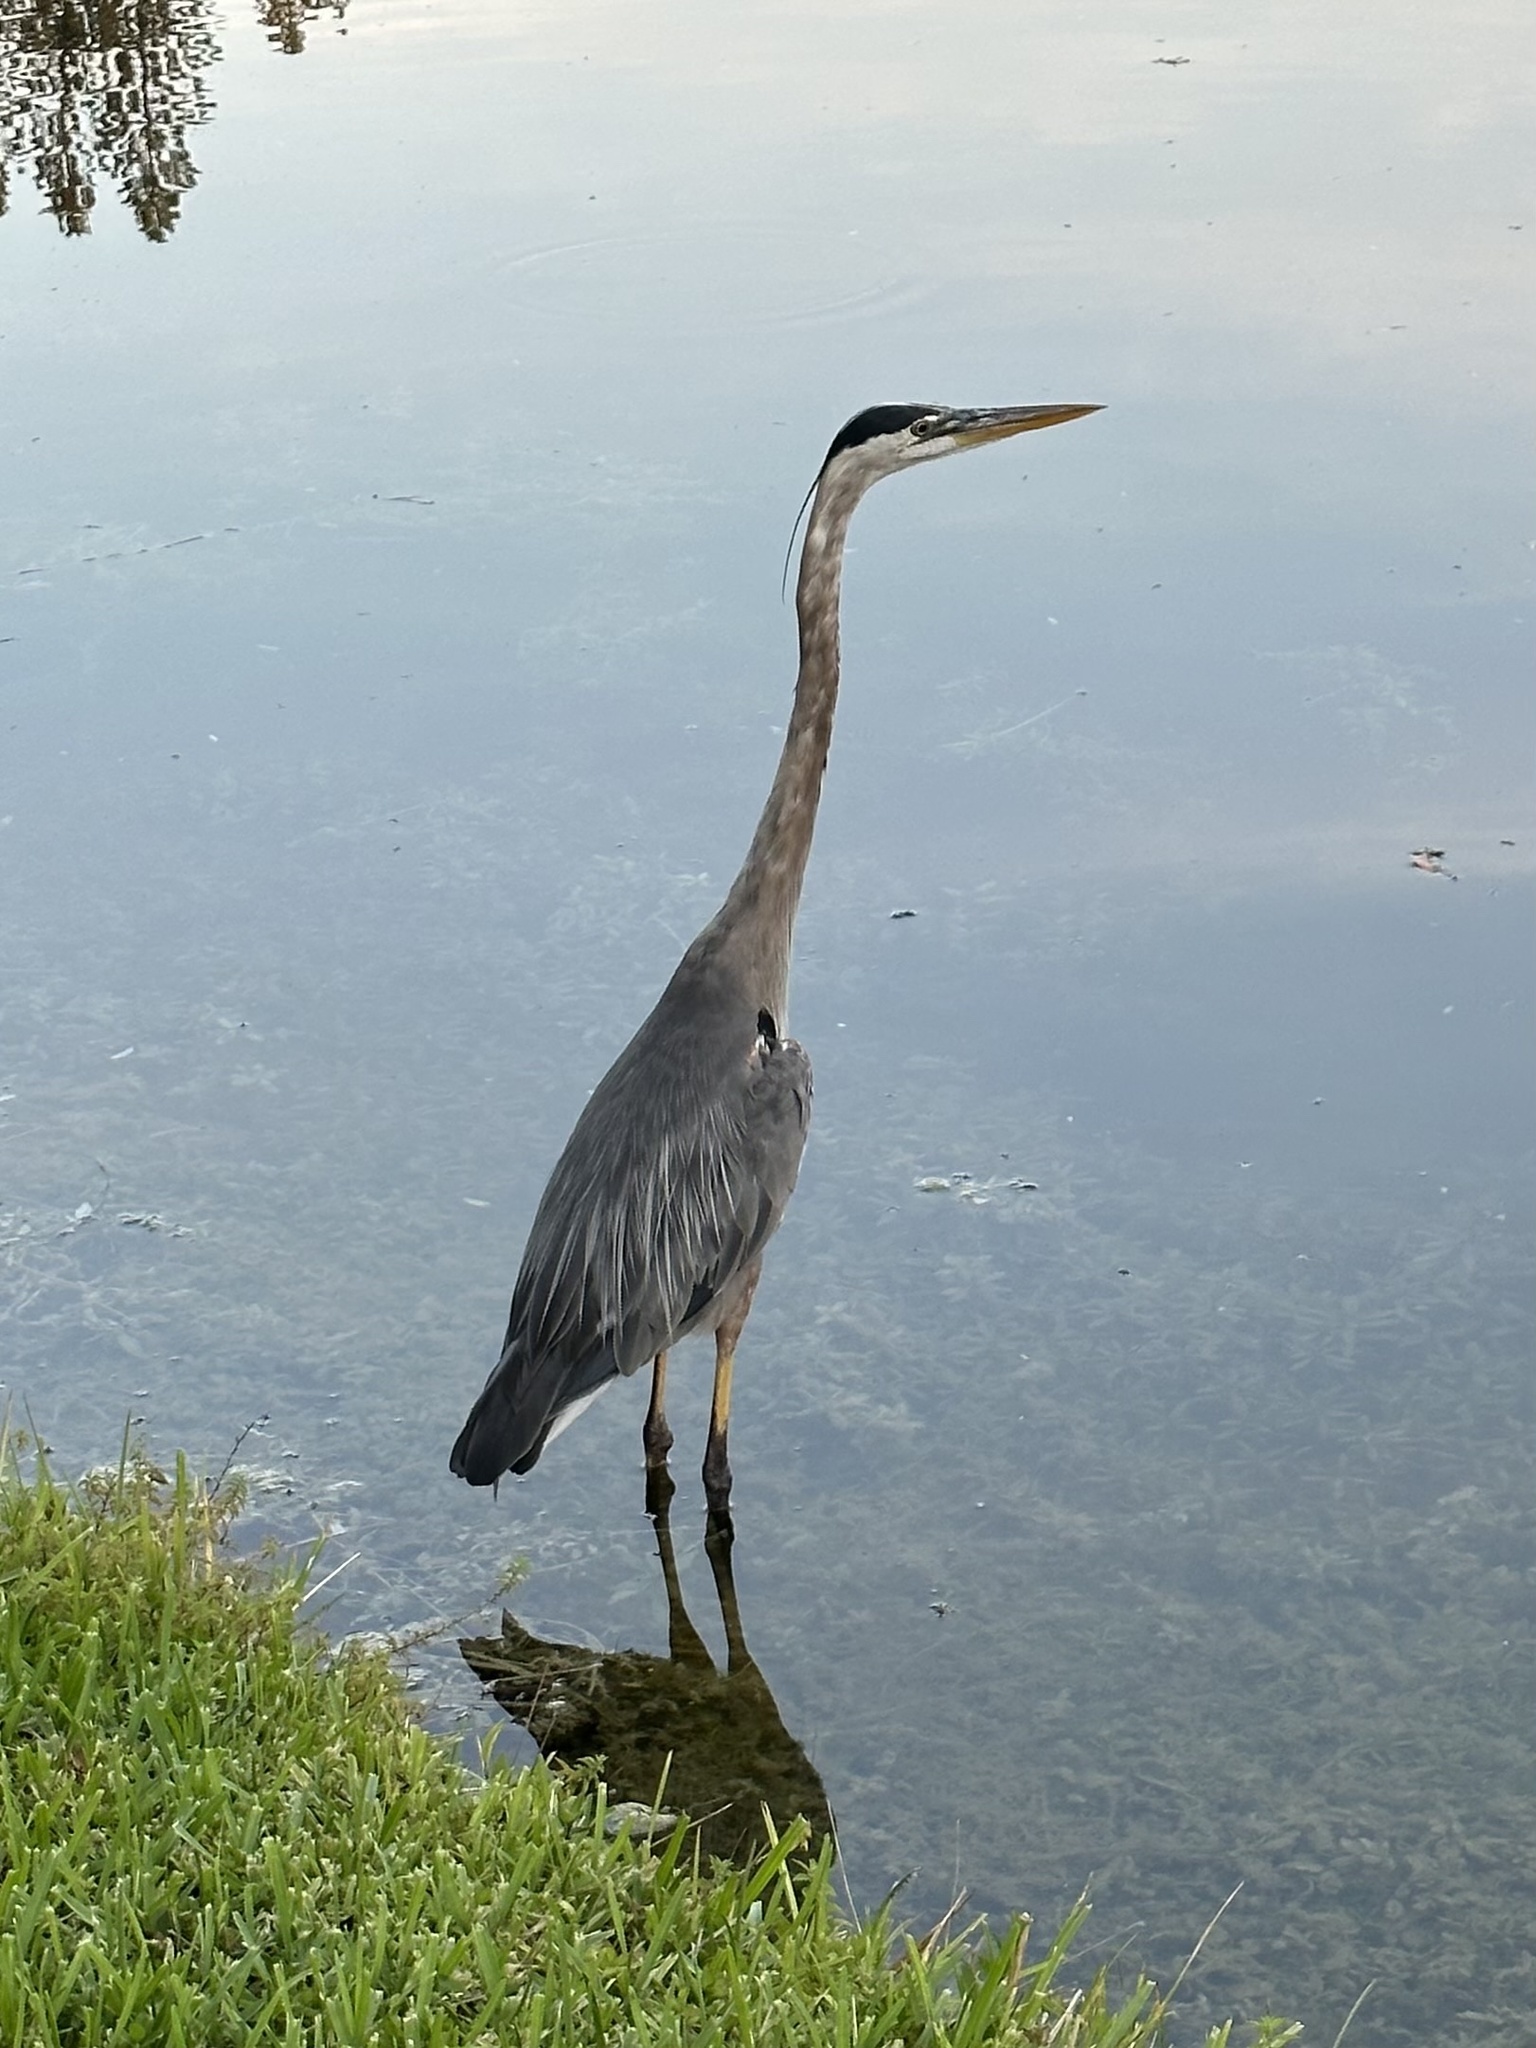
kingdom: Animalia
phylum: Chordata
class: Aves
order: Pelecaniformes
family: Ardeidae
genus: Ardea
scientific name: Ardea herodias
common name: Great blue heron
